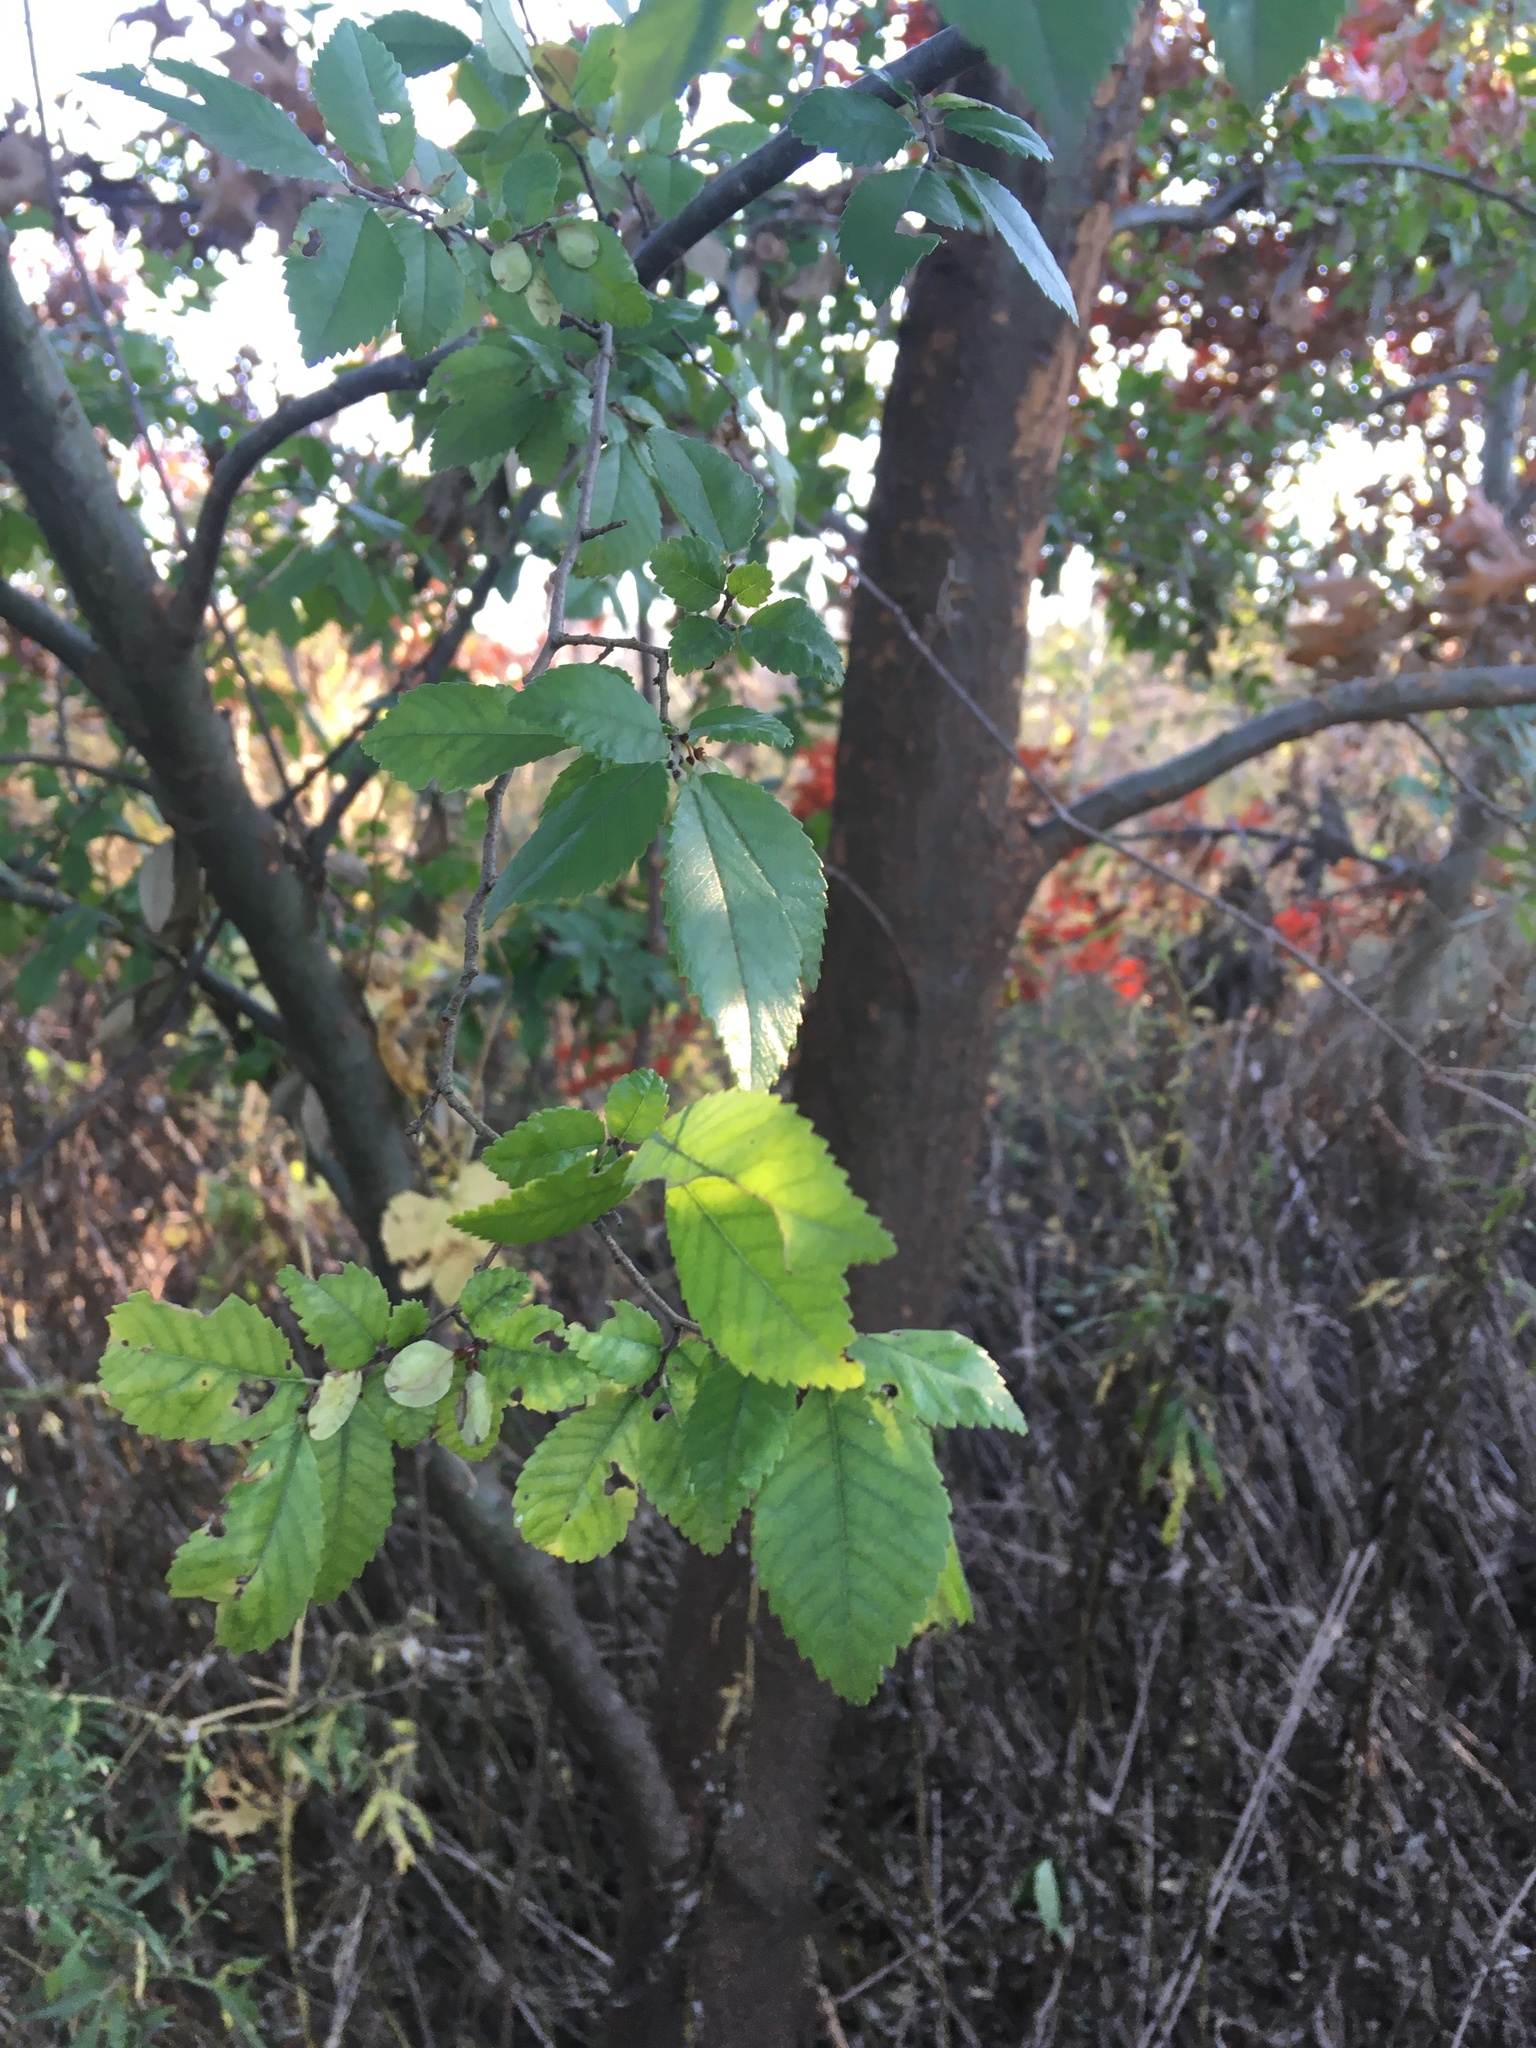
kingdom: Plantae
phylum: Tracheophyta
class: Magnoliopsida
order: Rosales
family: Ulmaceae
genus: Ulmus
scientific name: Ulmus parvifolia
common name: Chinese elm
